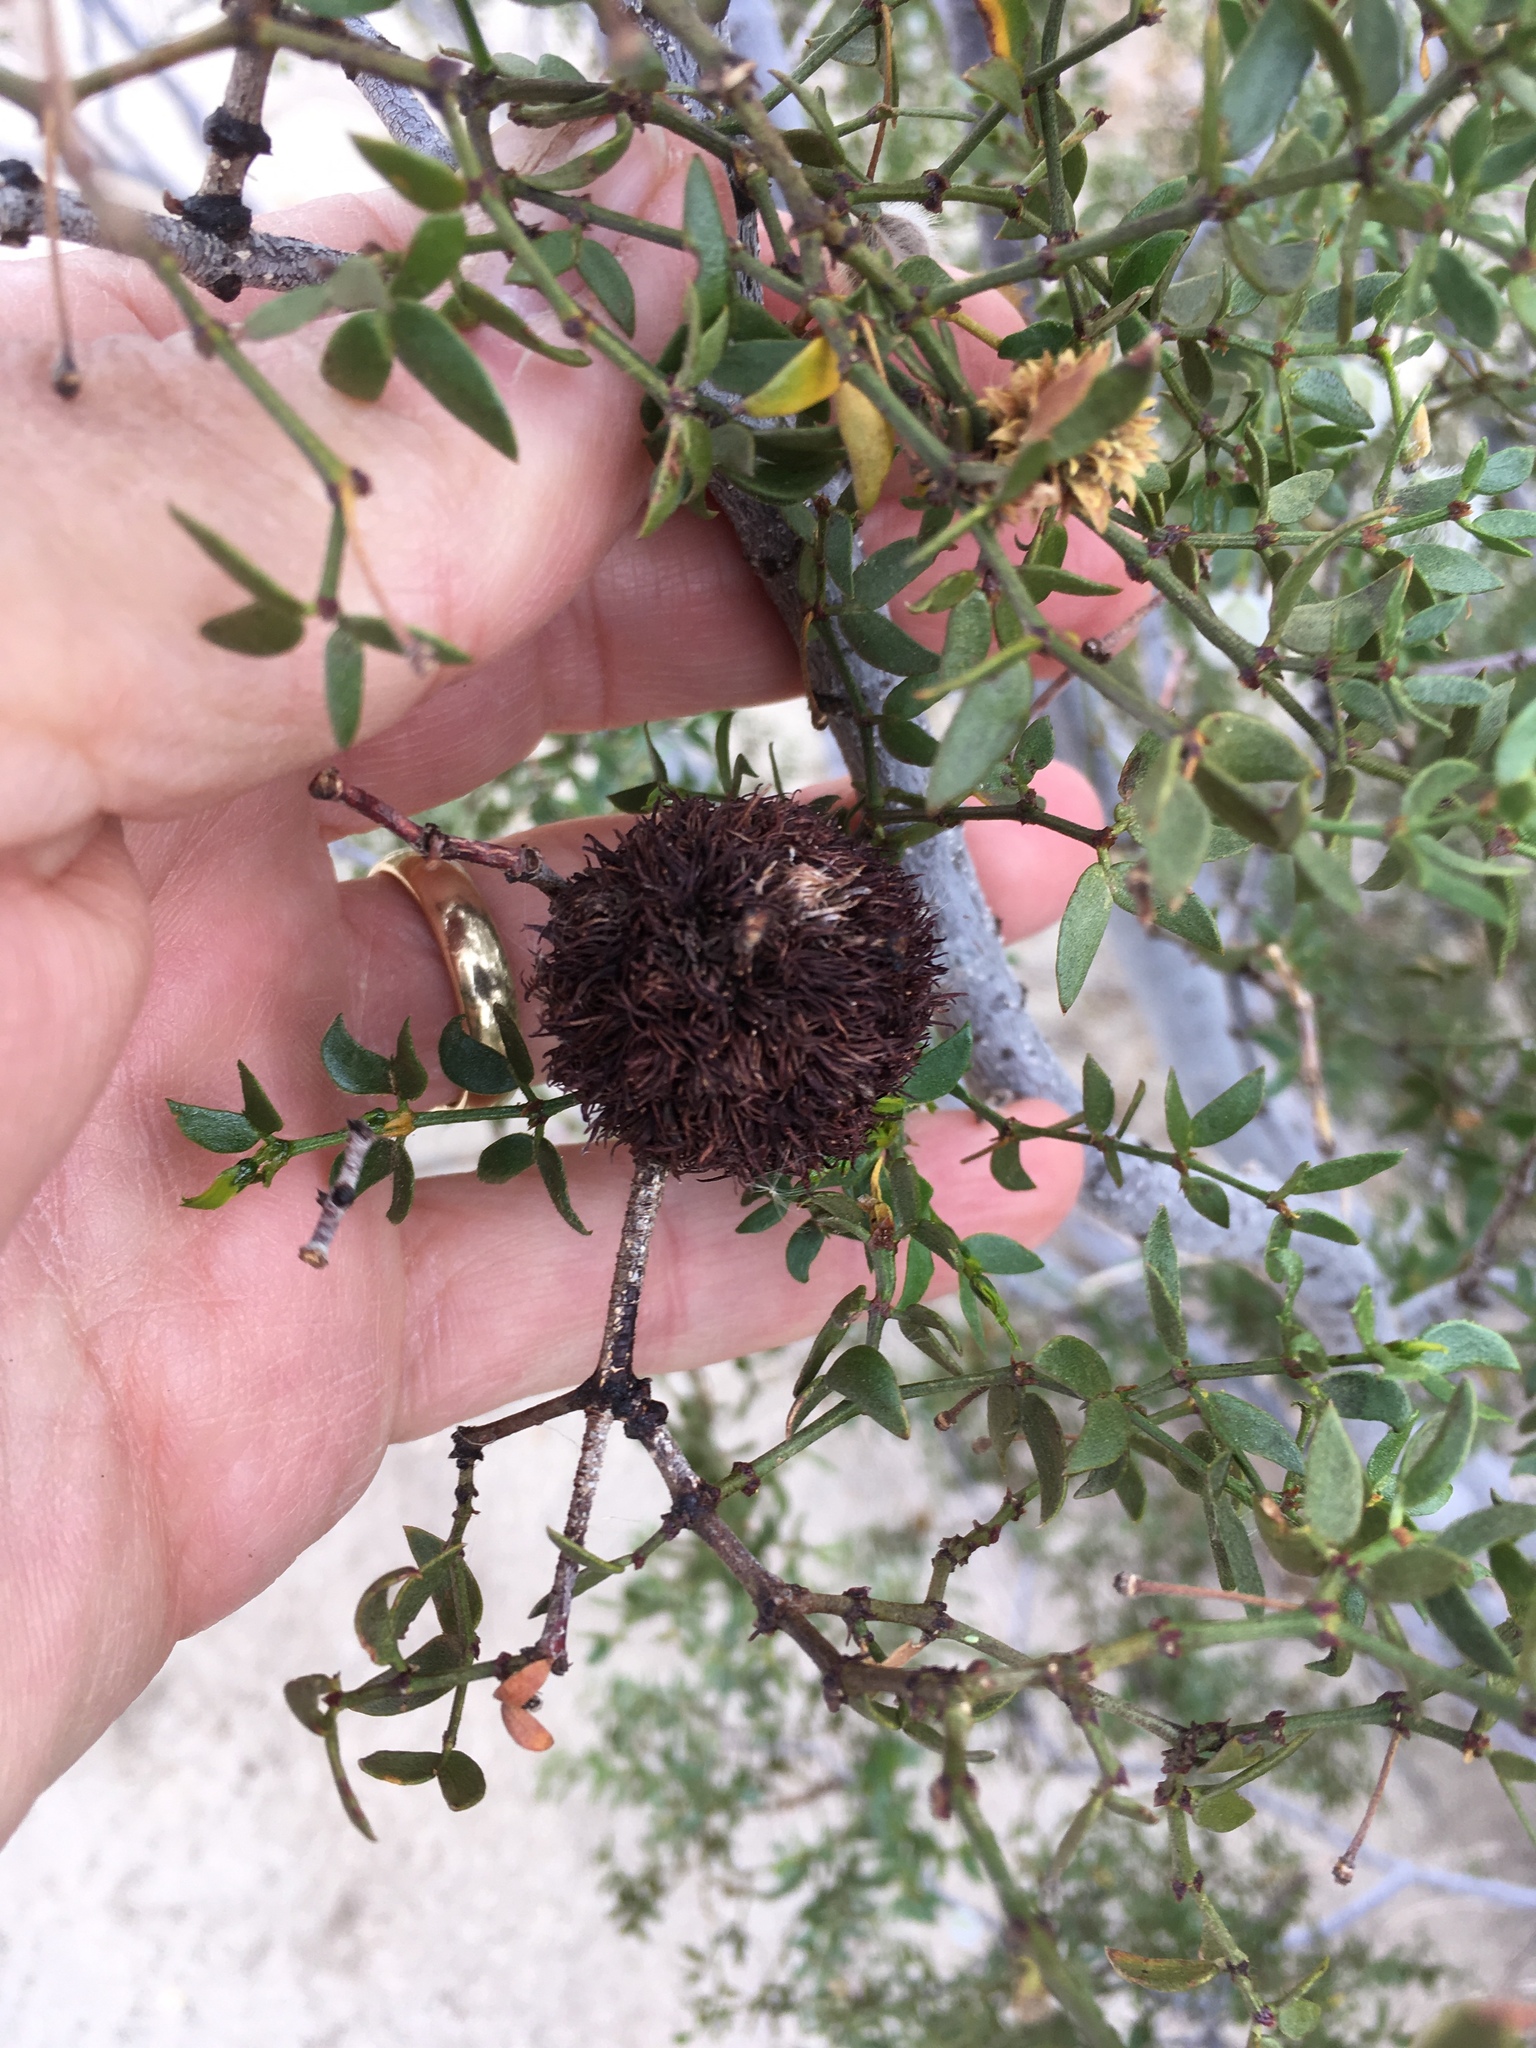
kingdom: Plantae
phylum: Tracheophyta
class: Magnoliopsida
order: Zygophyllales
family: Zygophyllaceae
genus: Larrea
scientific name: Larrea tridentata
